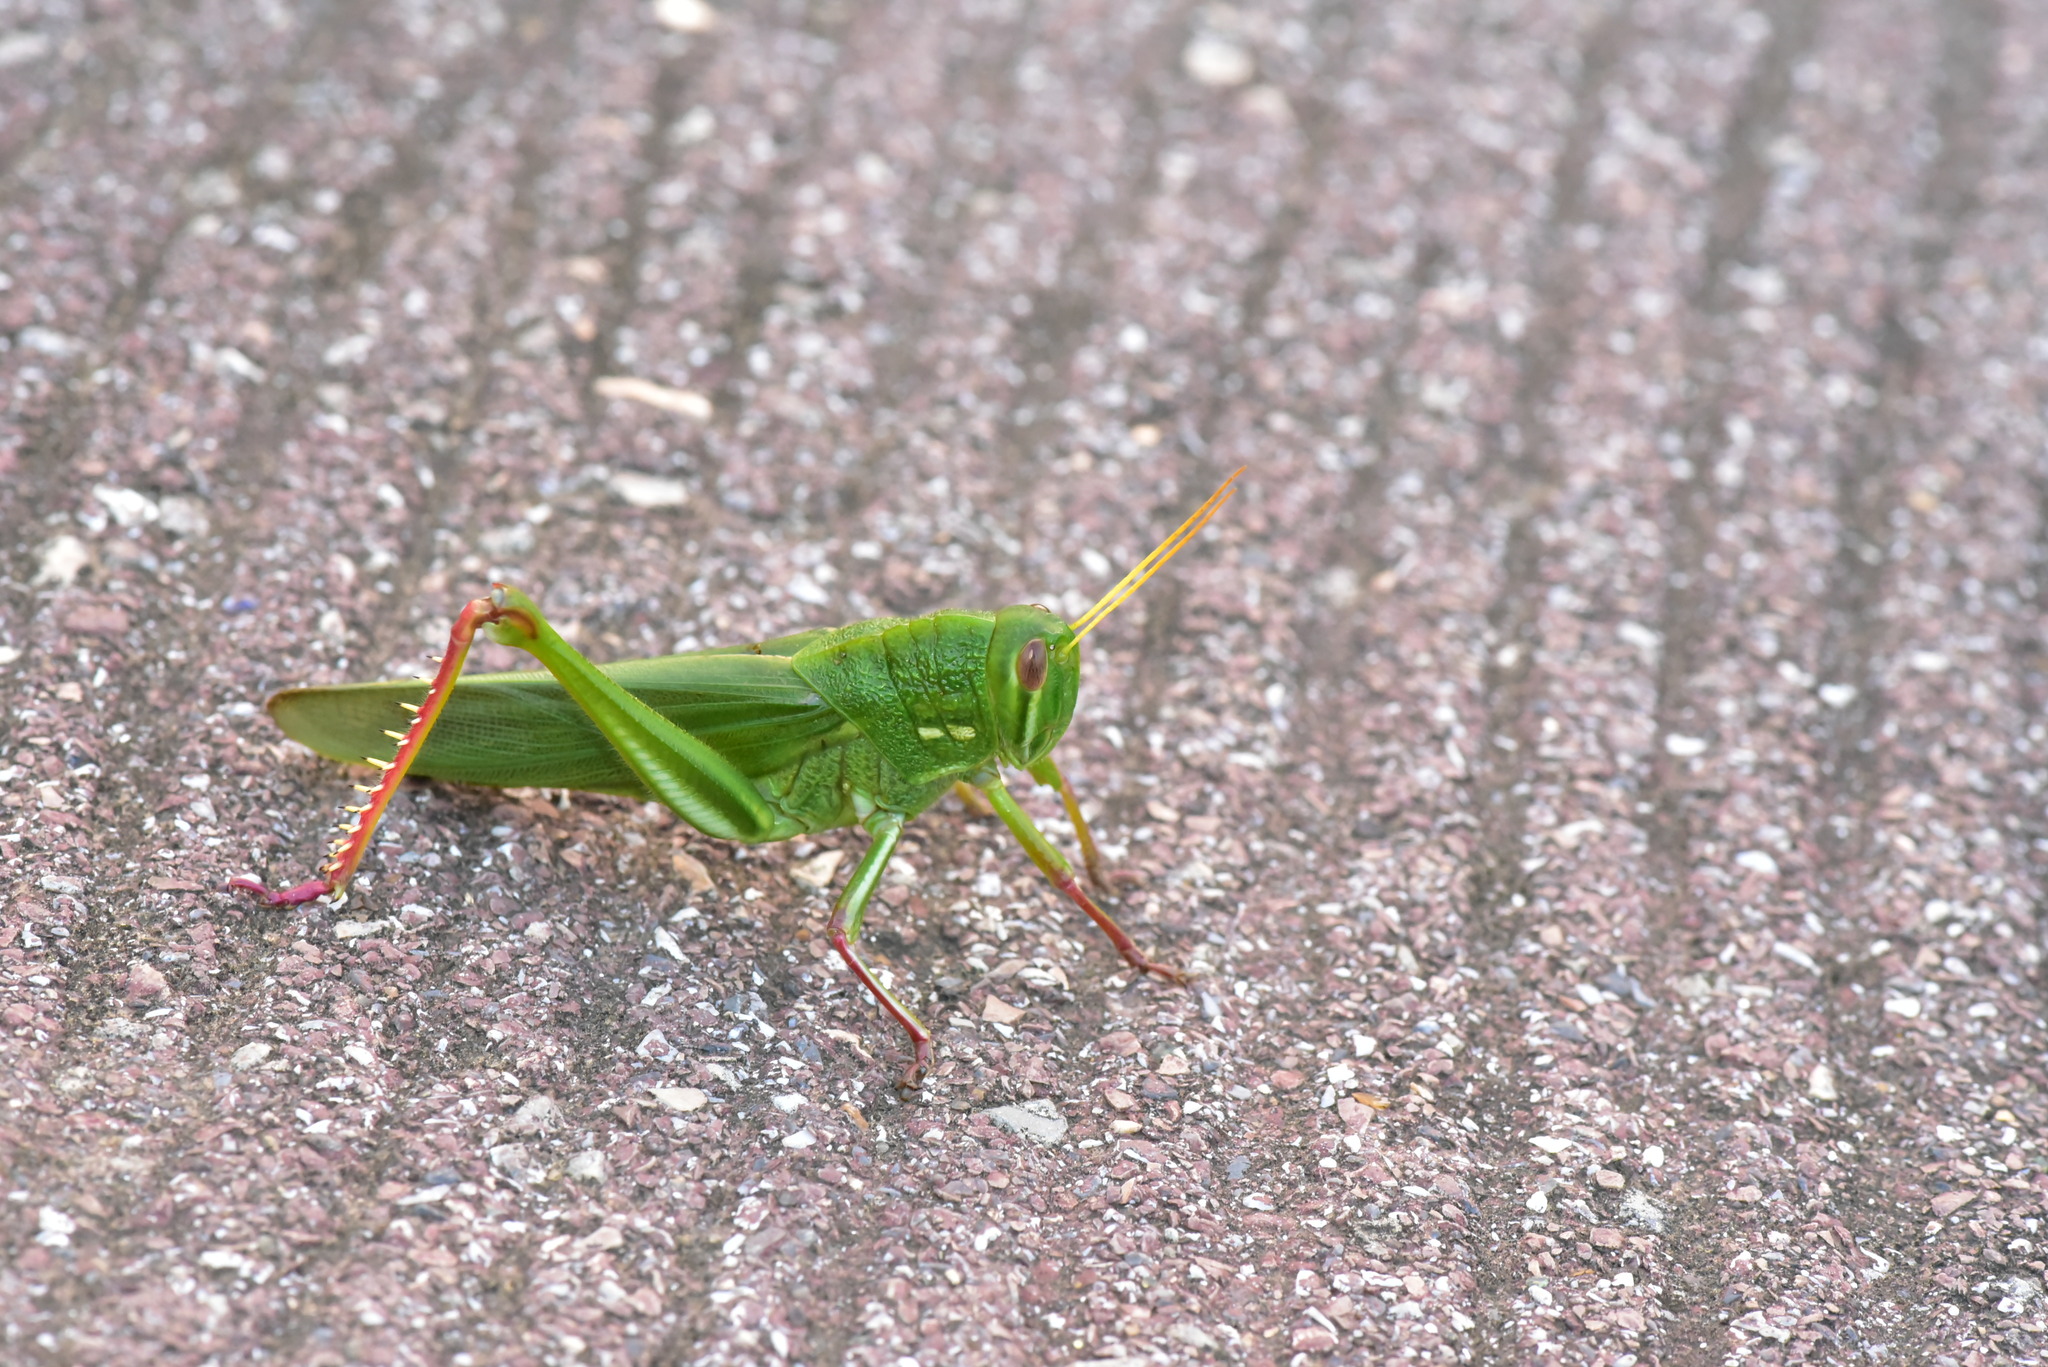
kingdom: Animalia
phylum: Arthropoda
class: Insecta
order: Orthoptera
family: Acrididae
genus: Chondracris
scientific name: Chondracris rosea
